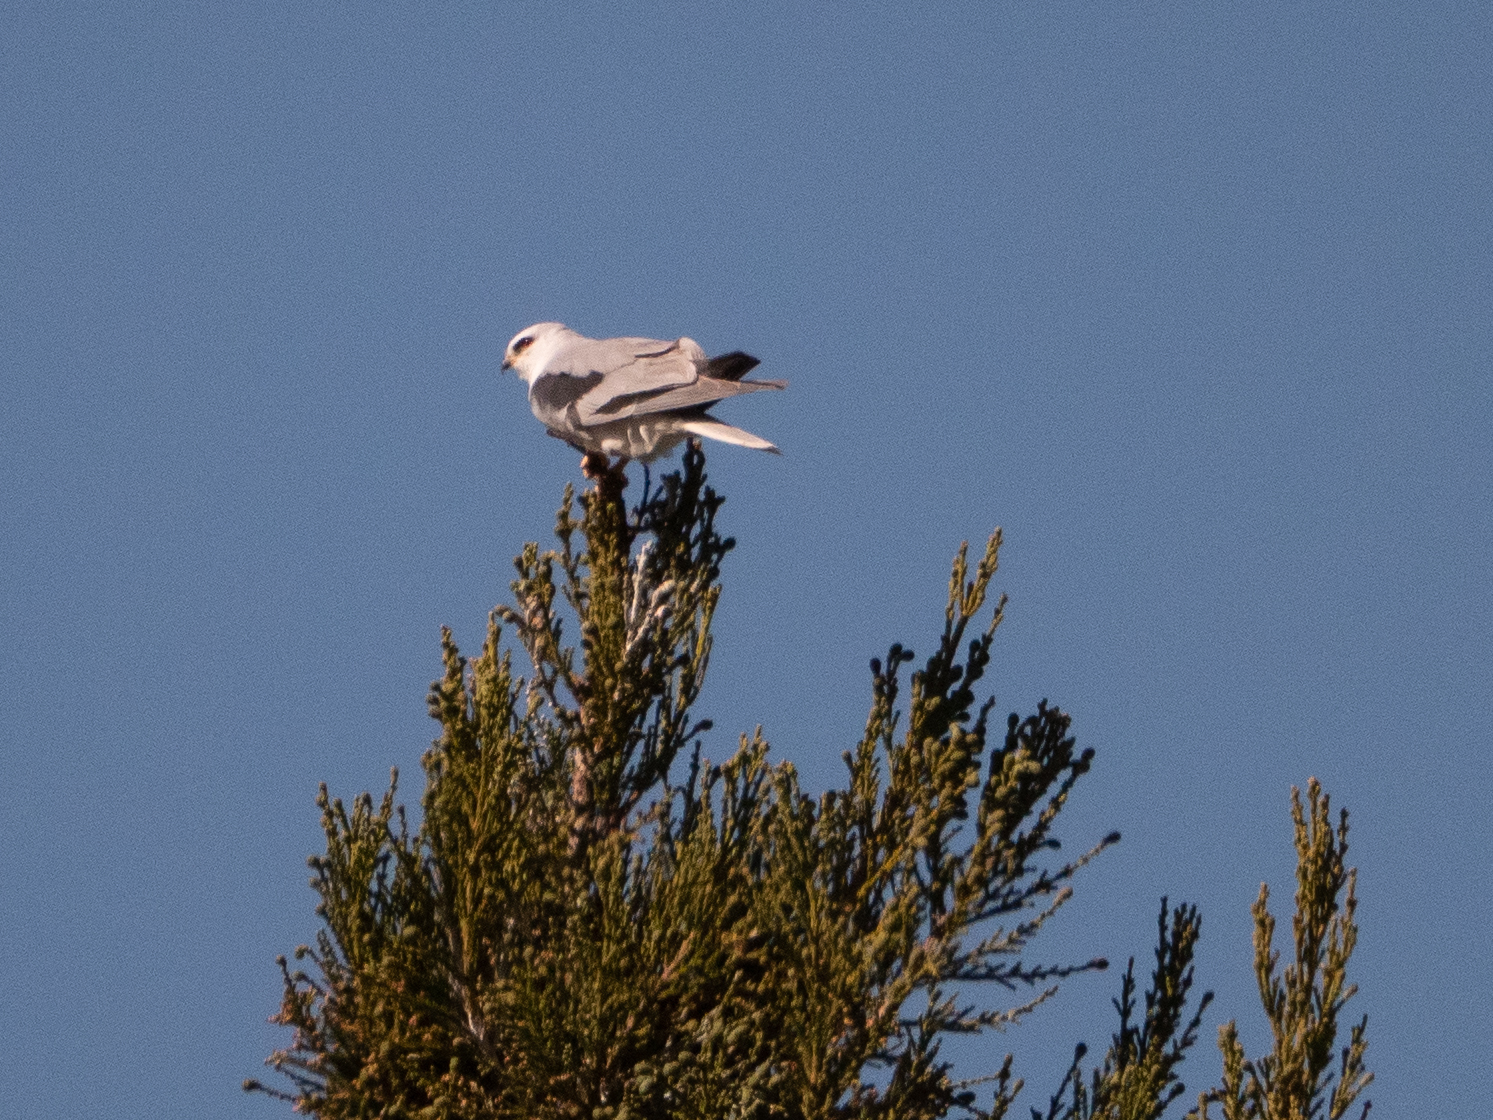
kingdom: Animalia
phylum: Chordata
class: Aves
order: Accipitriformes
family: Accipitridae
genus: Elanus
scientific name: Elanus leucurus
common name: White-tailed kite
